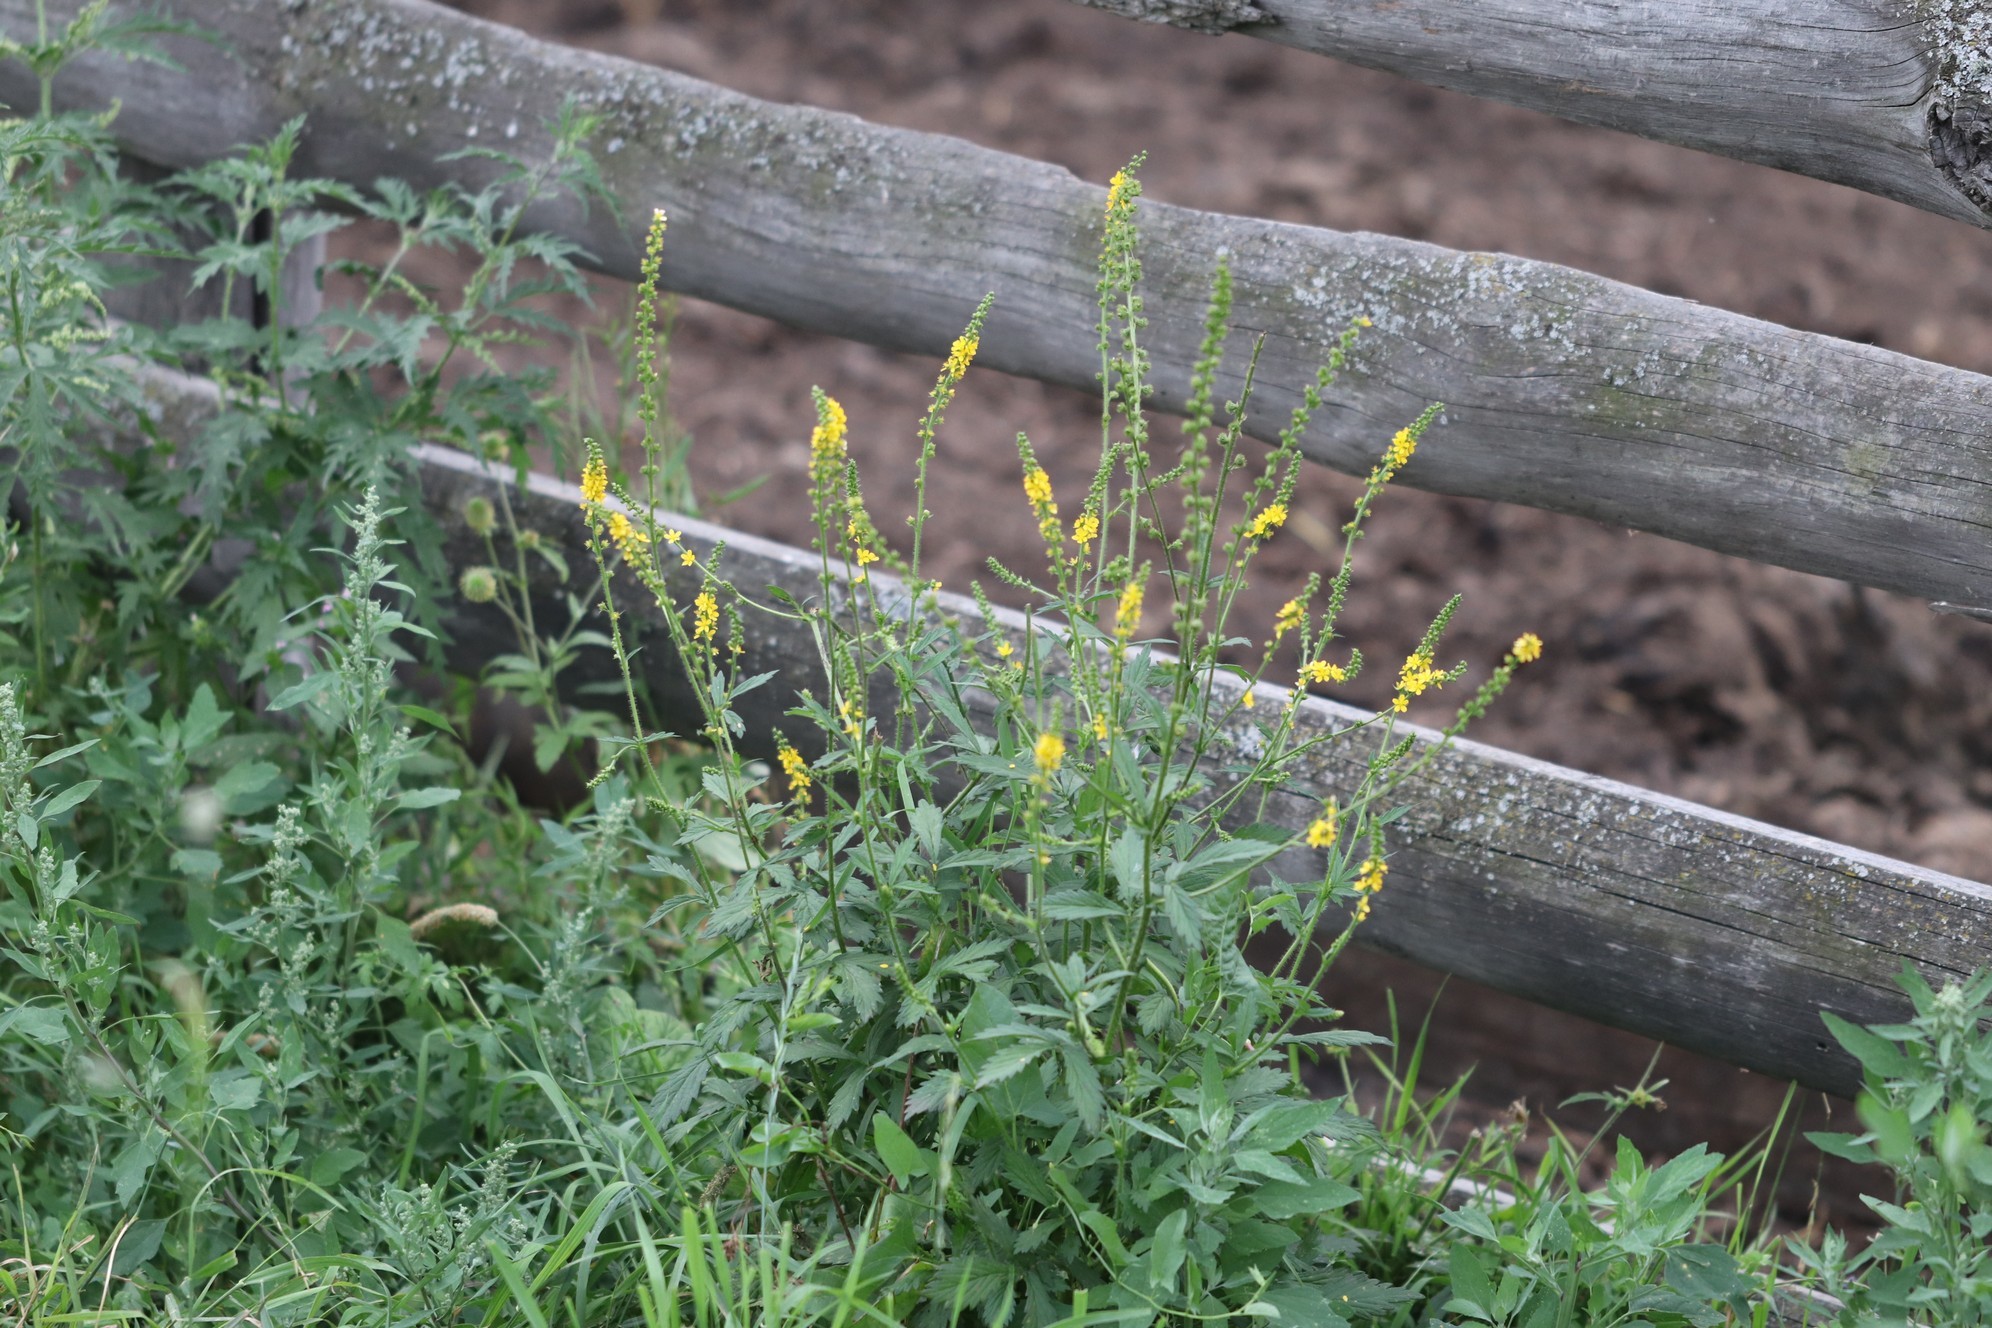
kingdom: Plantae
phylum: Tracheophyta
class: Magnoliopsida
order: Rosales
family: Rosaceae
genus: Agrimonia
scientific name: Agrimonia pilosa
